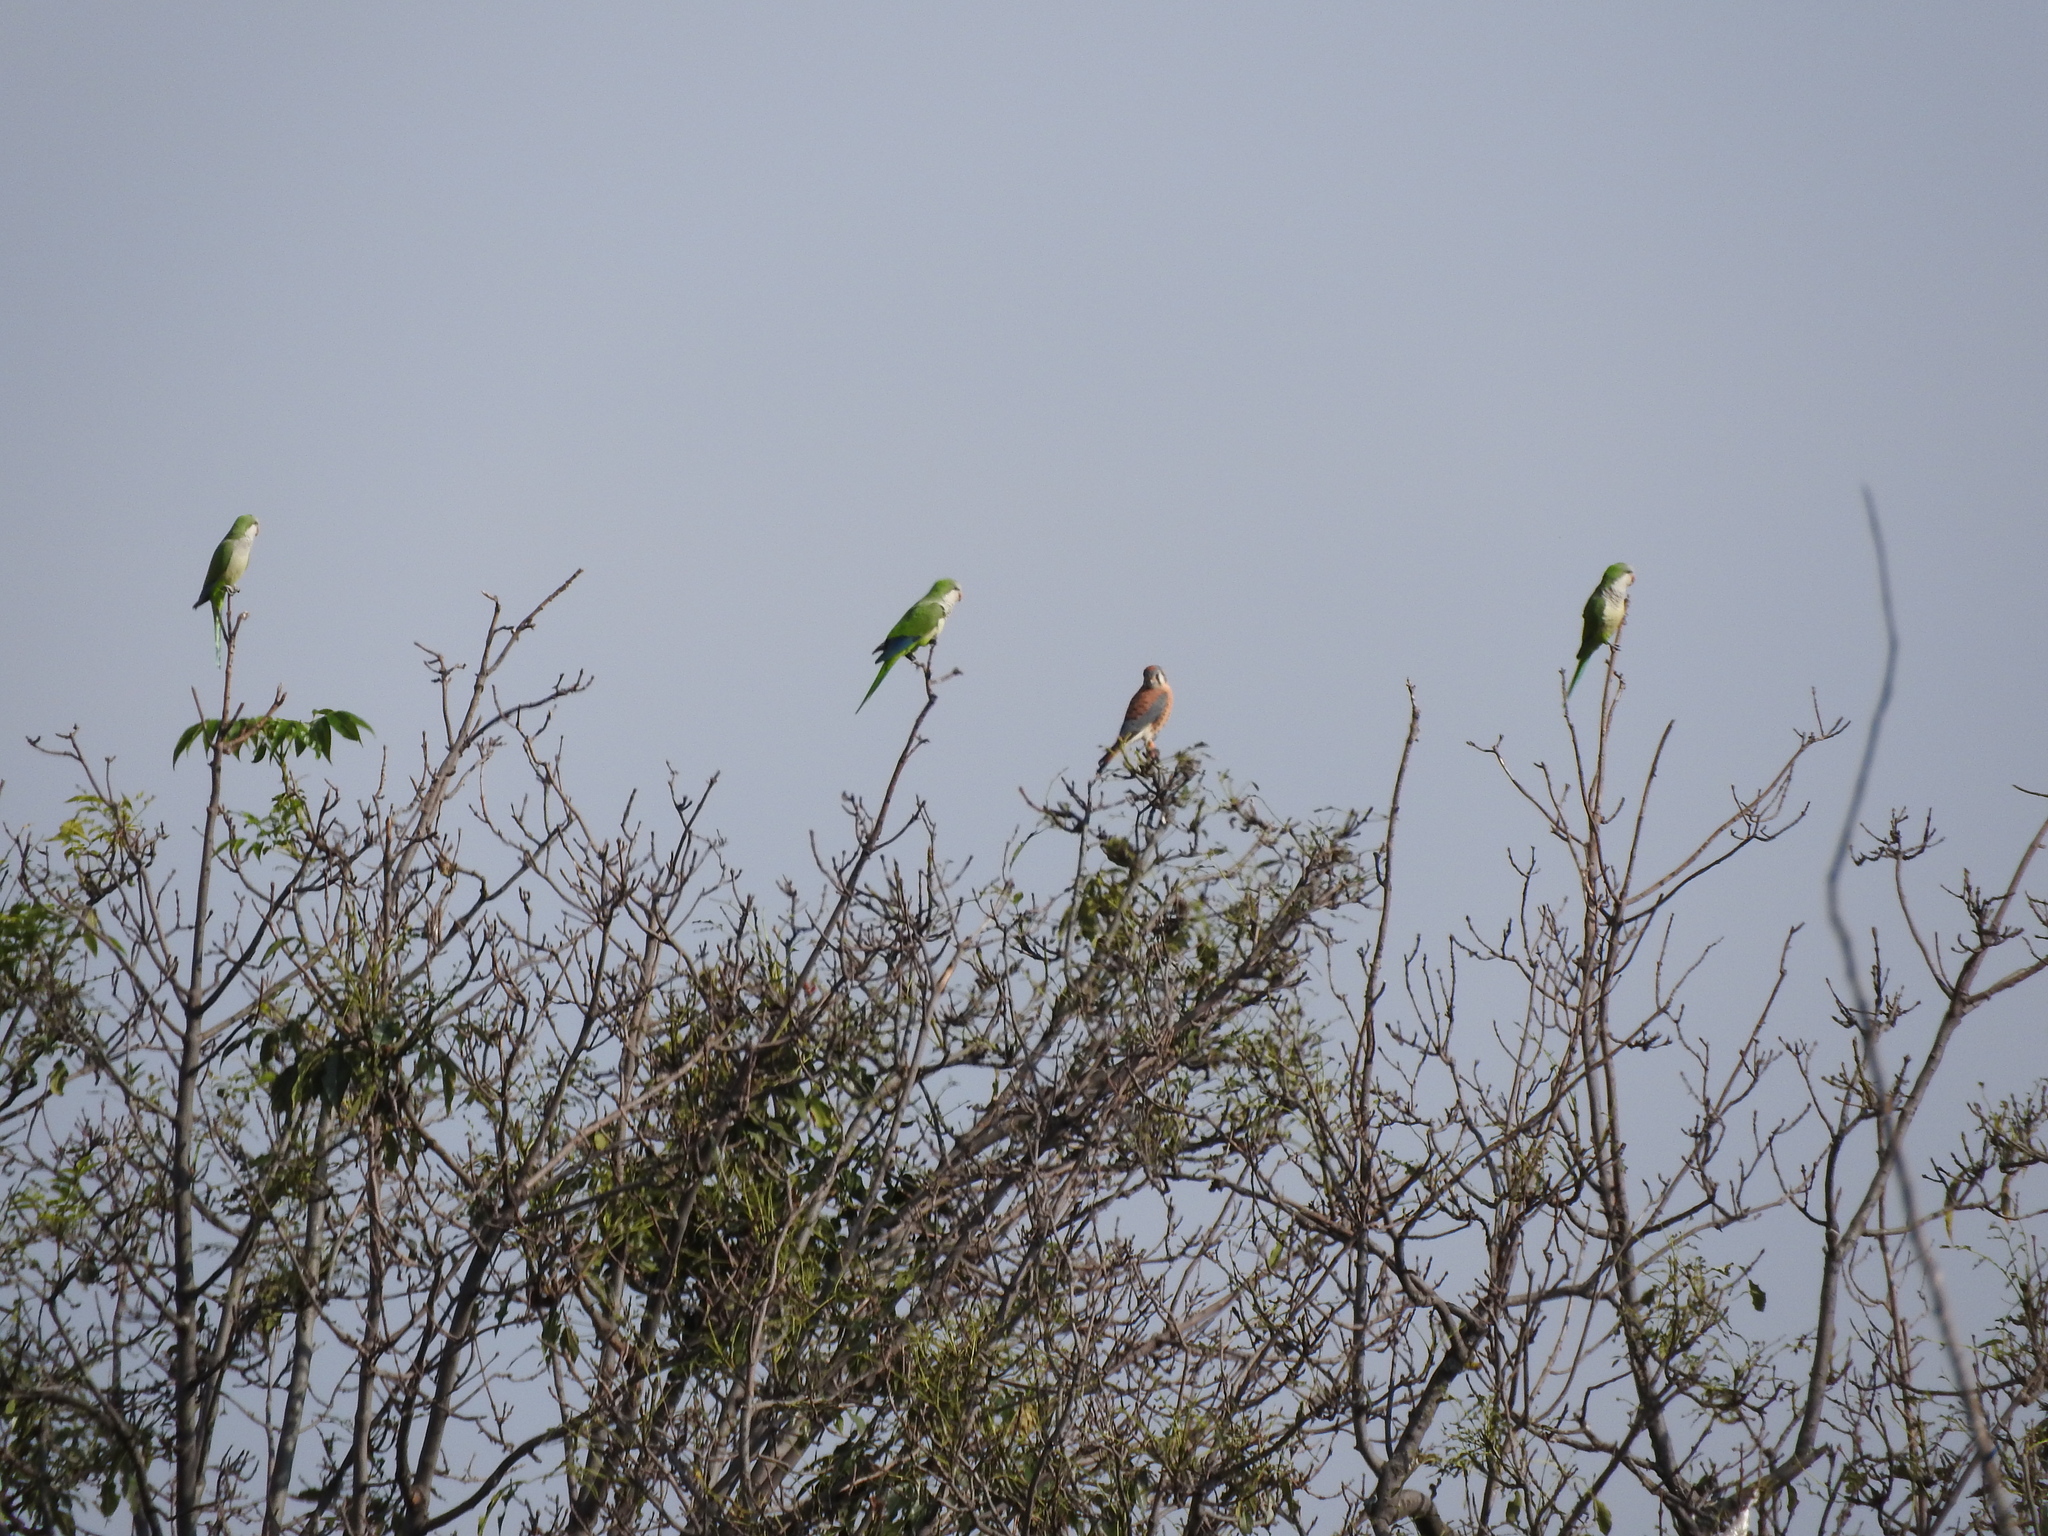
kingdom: Animalia
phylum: Chordata
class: Aves
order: Psittaciformes
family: Psittacidae
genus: Myiopsitta
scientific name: Myiopsitta monachus
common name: Monk parakeet
